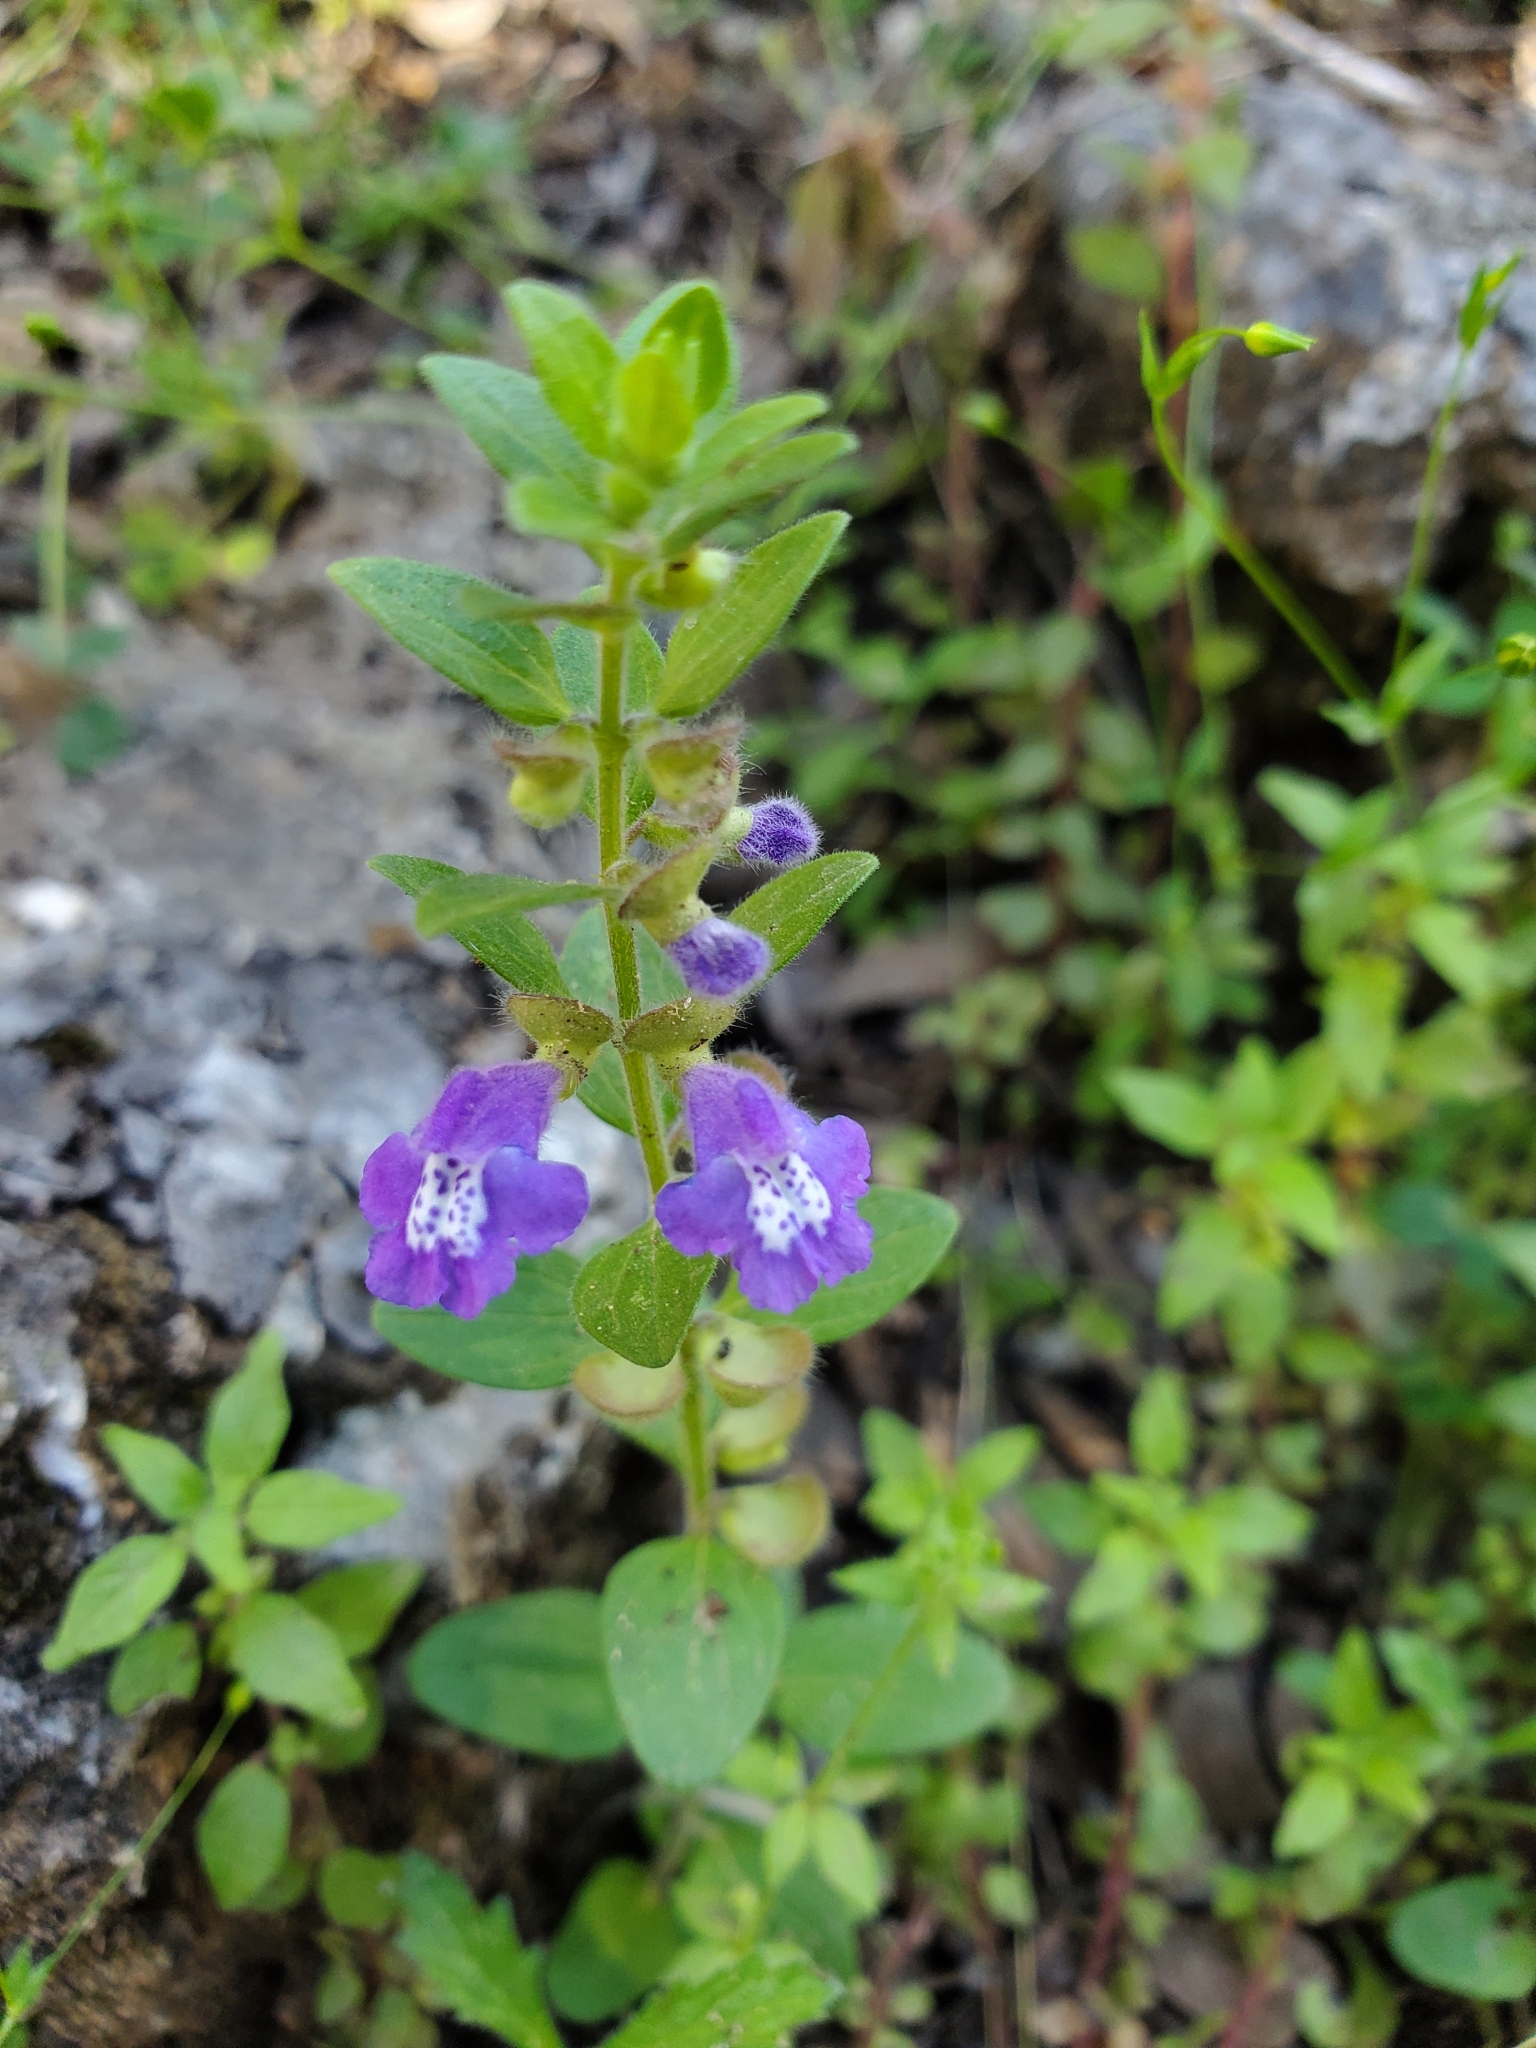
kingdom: Plantae
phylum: Tracheophyta
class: Magnoliopsida
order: Lamiales
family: Lamiaceae
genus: Scutellaria
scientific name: Scutellaria drummondii
